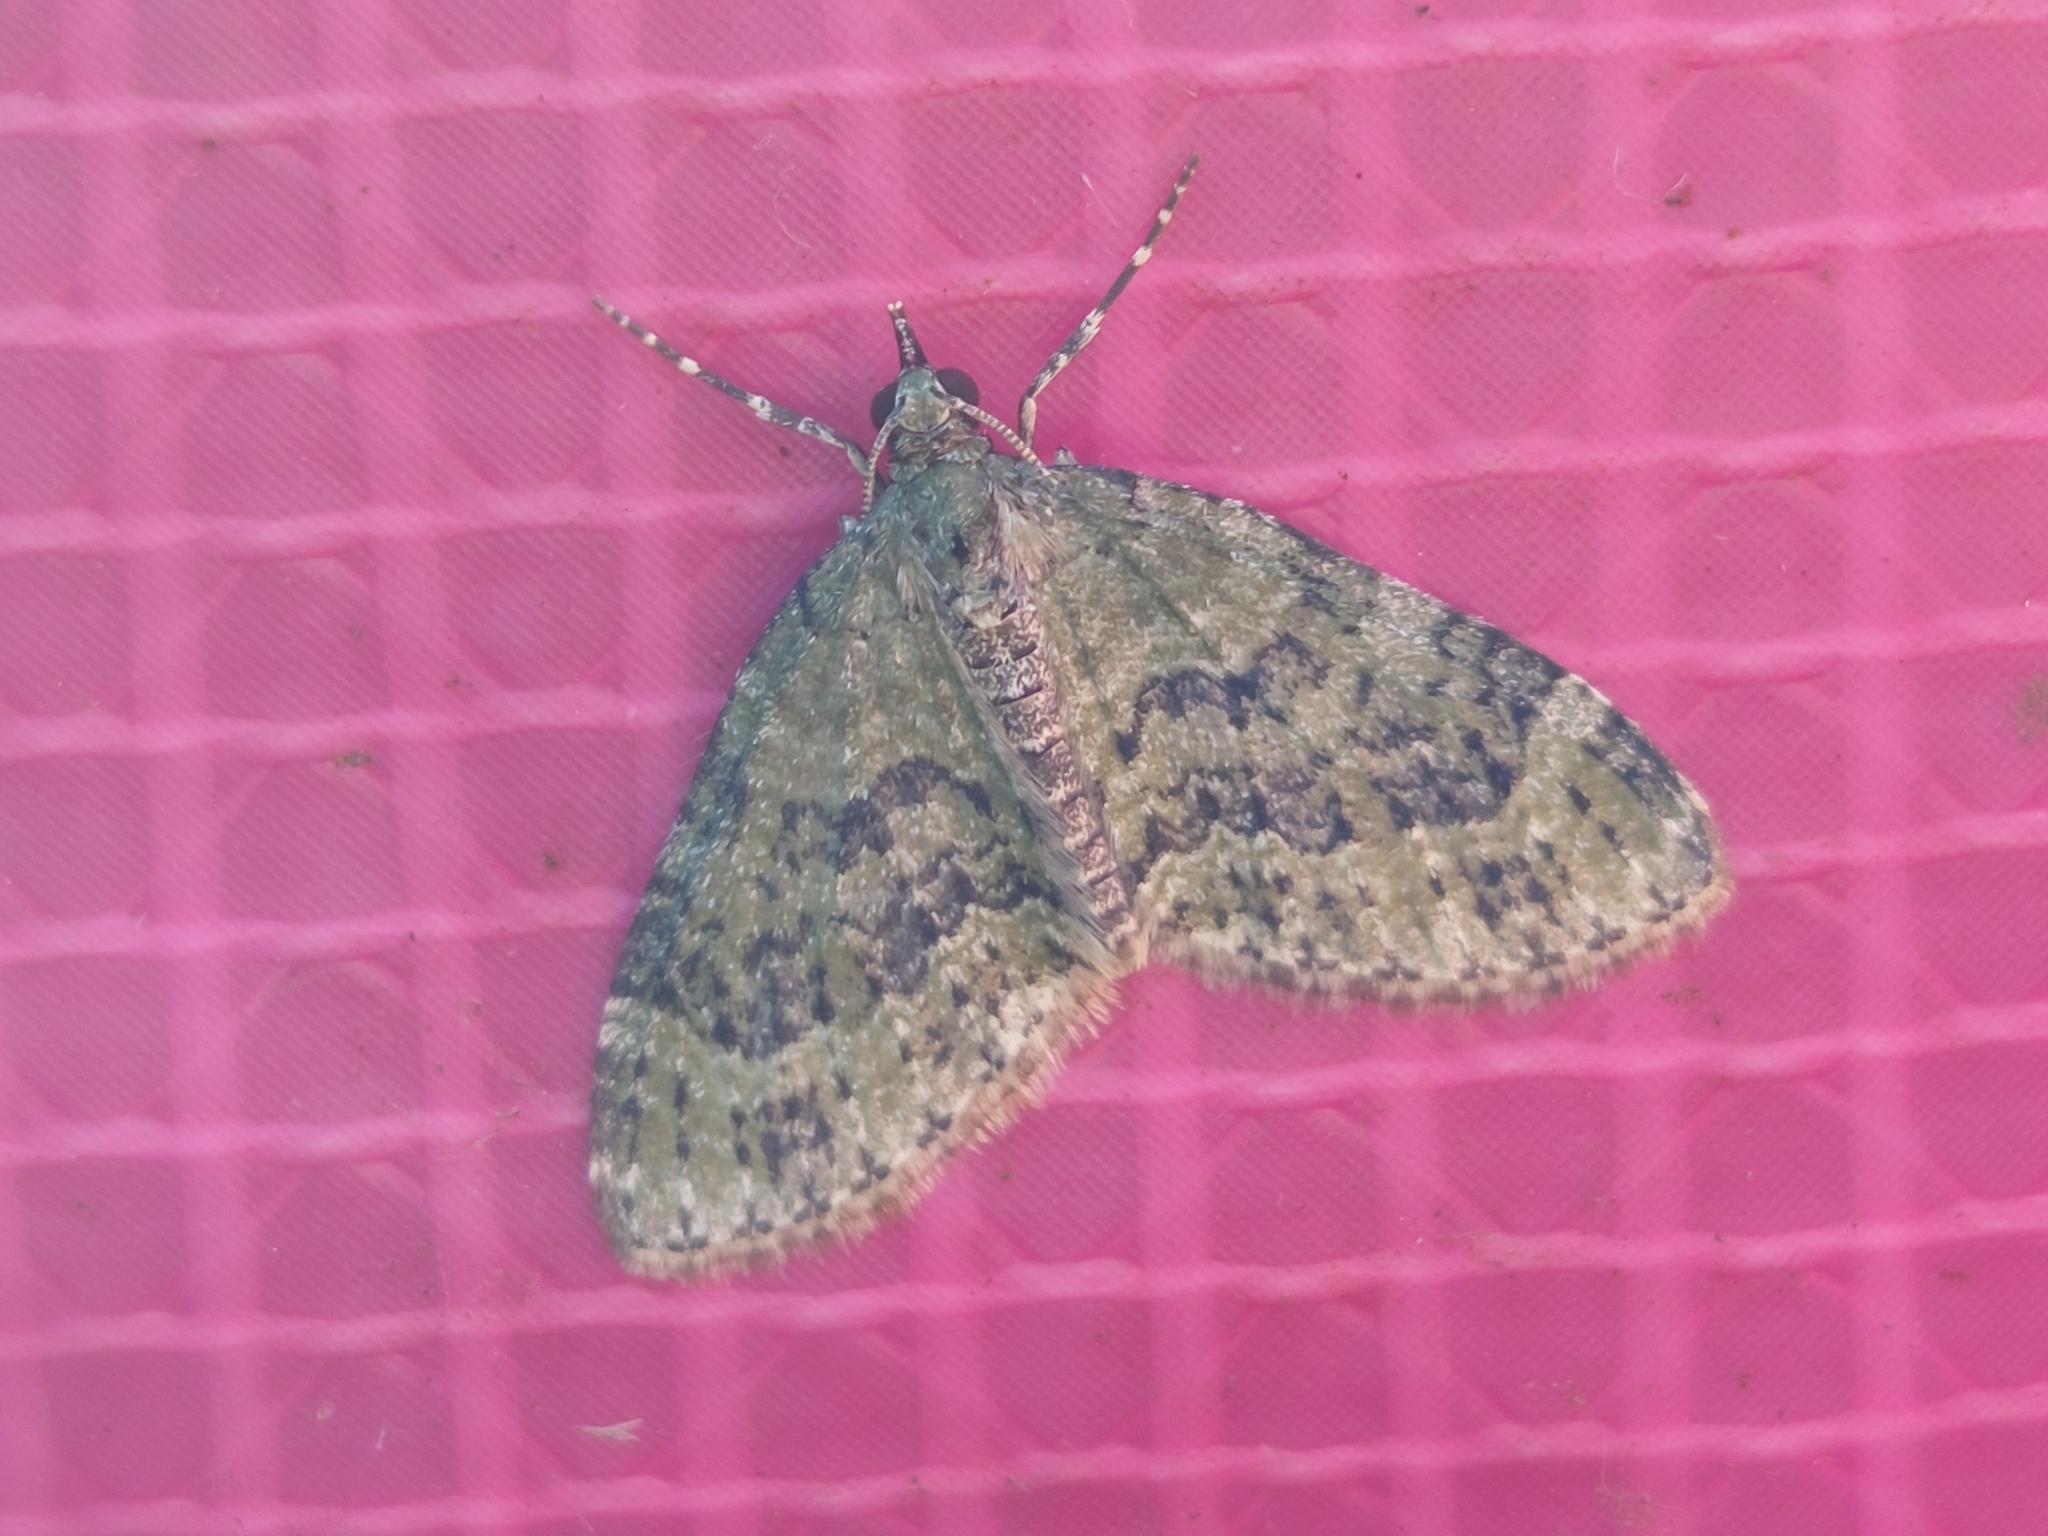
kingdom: Animalia
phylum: Arthropoda
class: Insecta
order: Lepidoptera
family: Geometridae
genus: Acasis
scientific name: Acasis viretata
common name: Yellow-barred brindle
